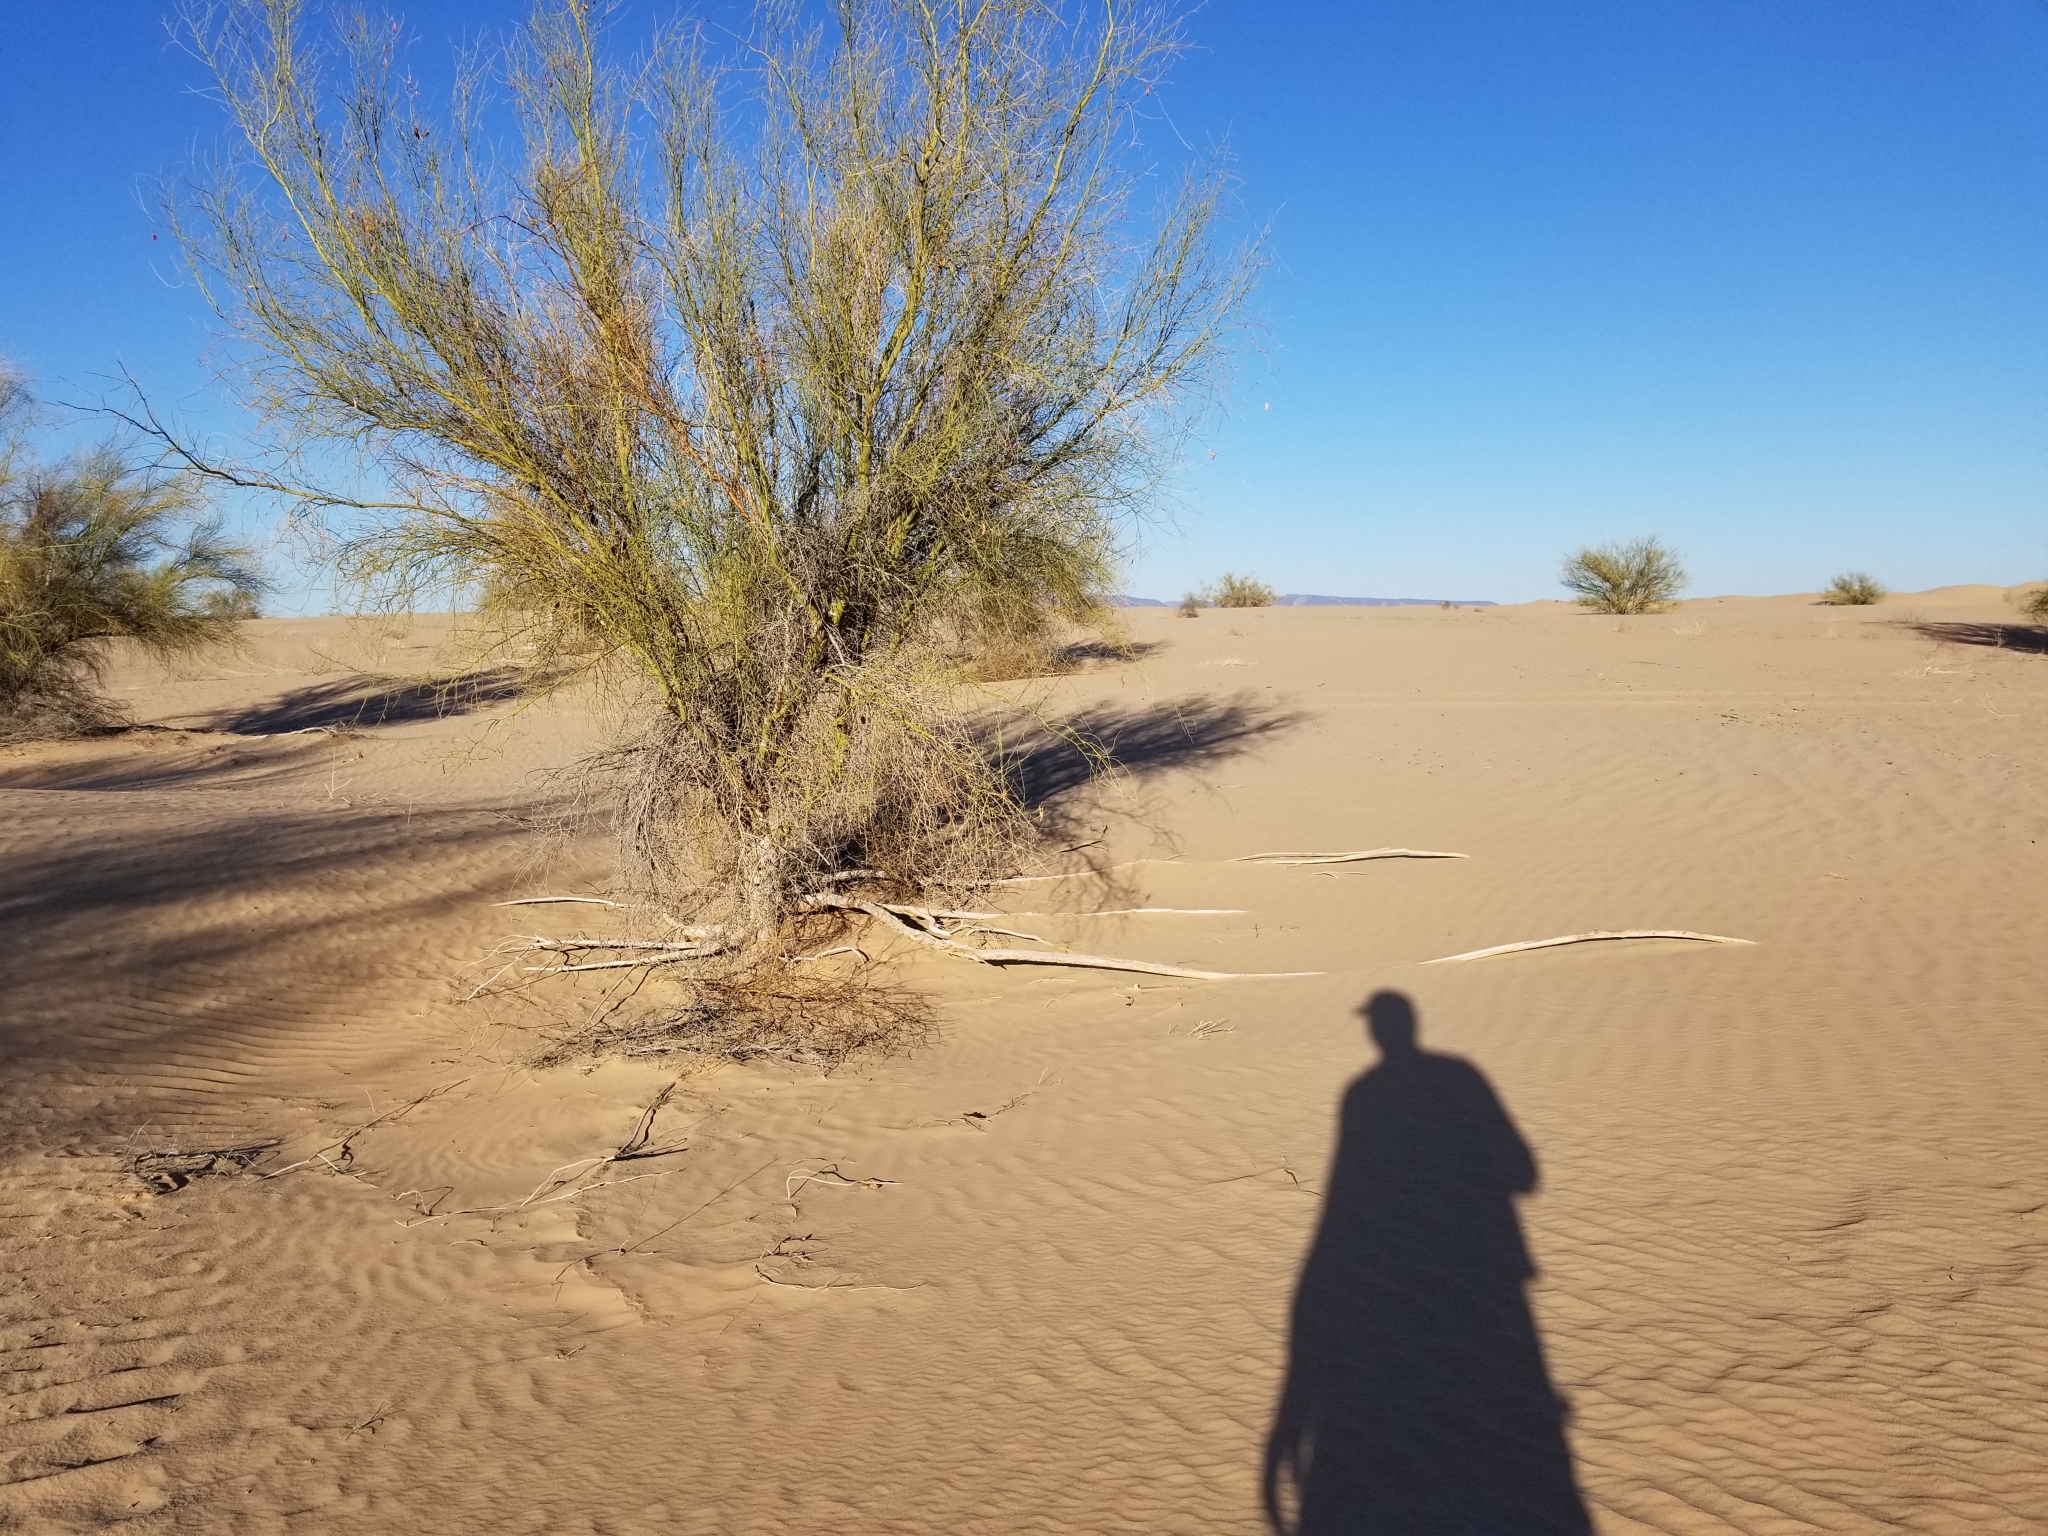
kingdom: Plantae
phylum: Tracheophyta
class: Magnoliopsida
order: Fabales
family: Fabaceae
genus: Parkinsonia
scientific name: Parkinsonia florida
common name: Blue paloverde
